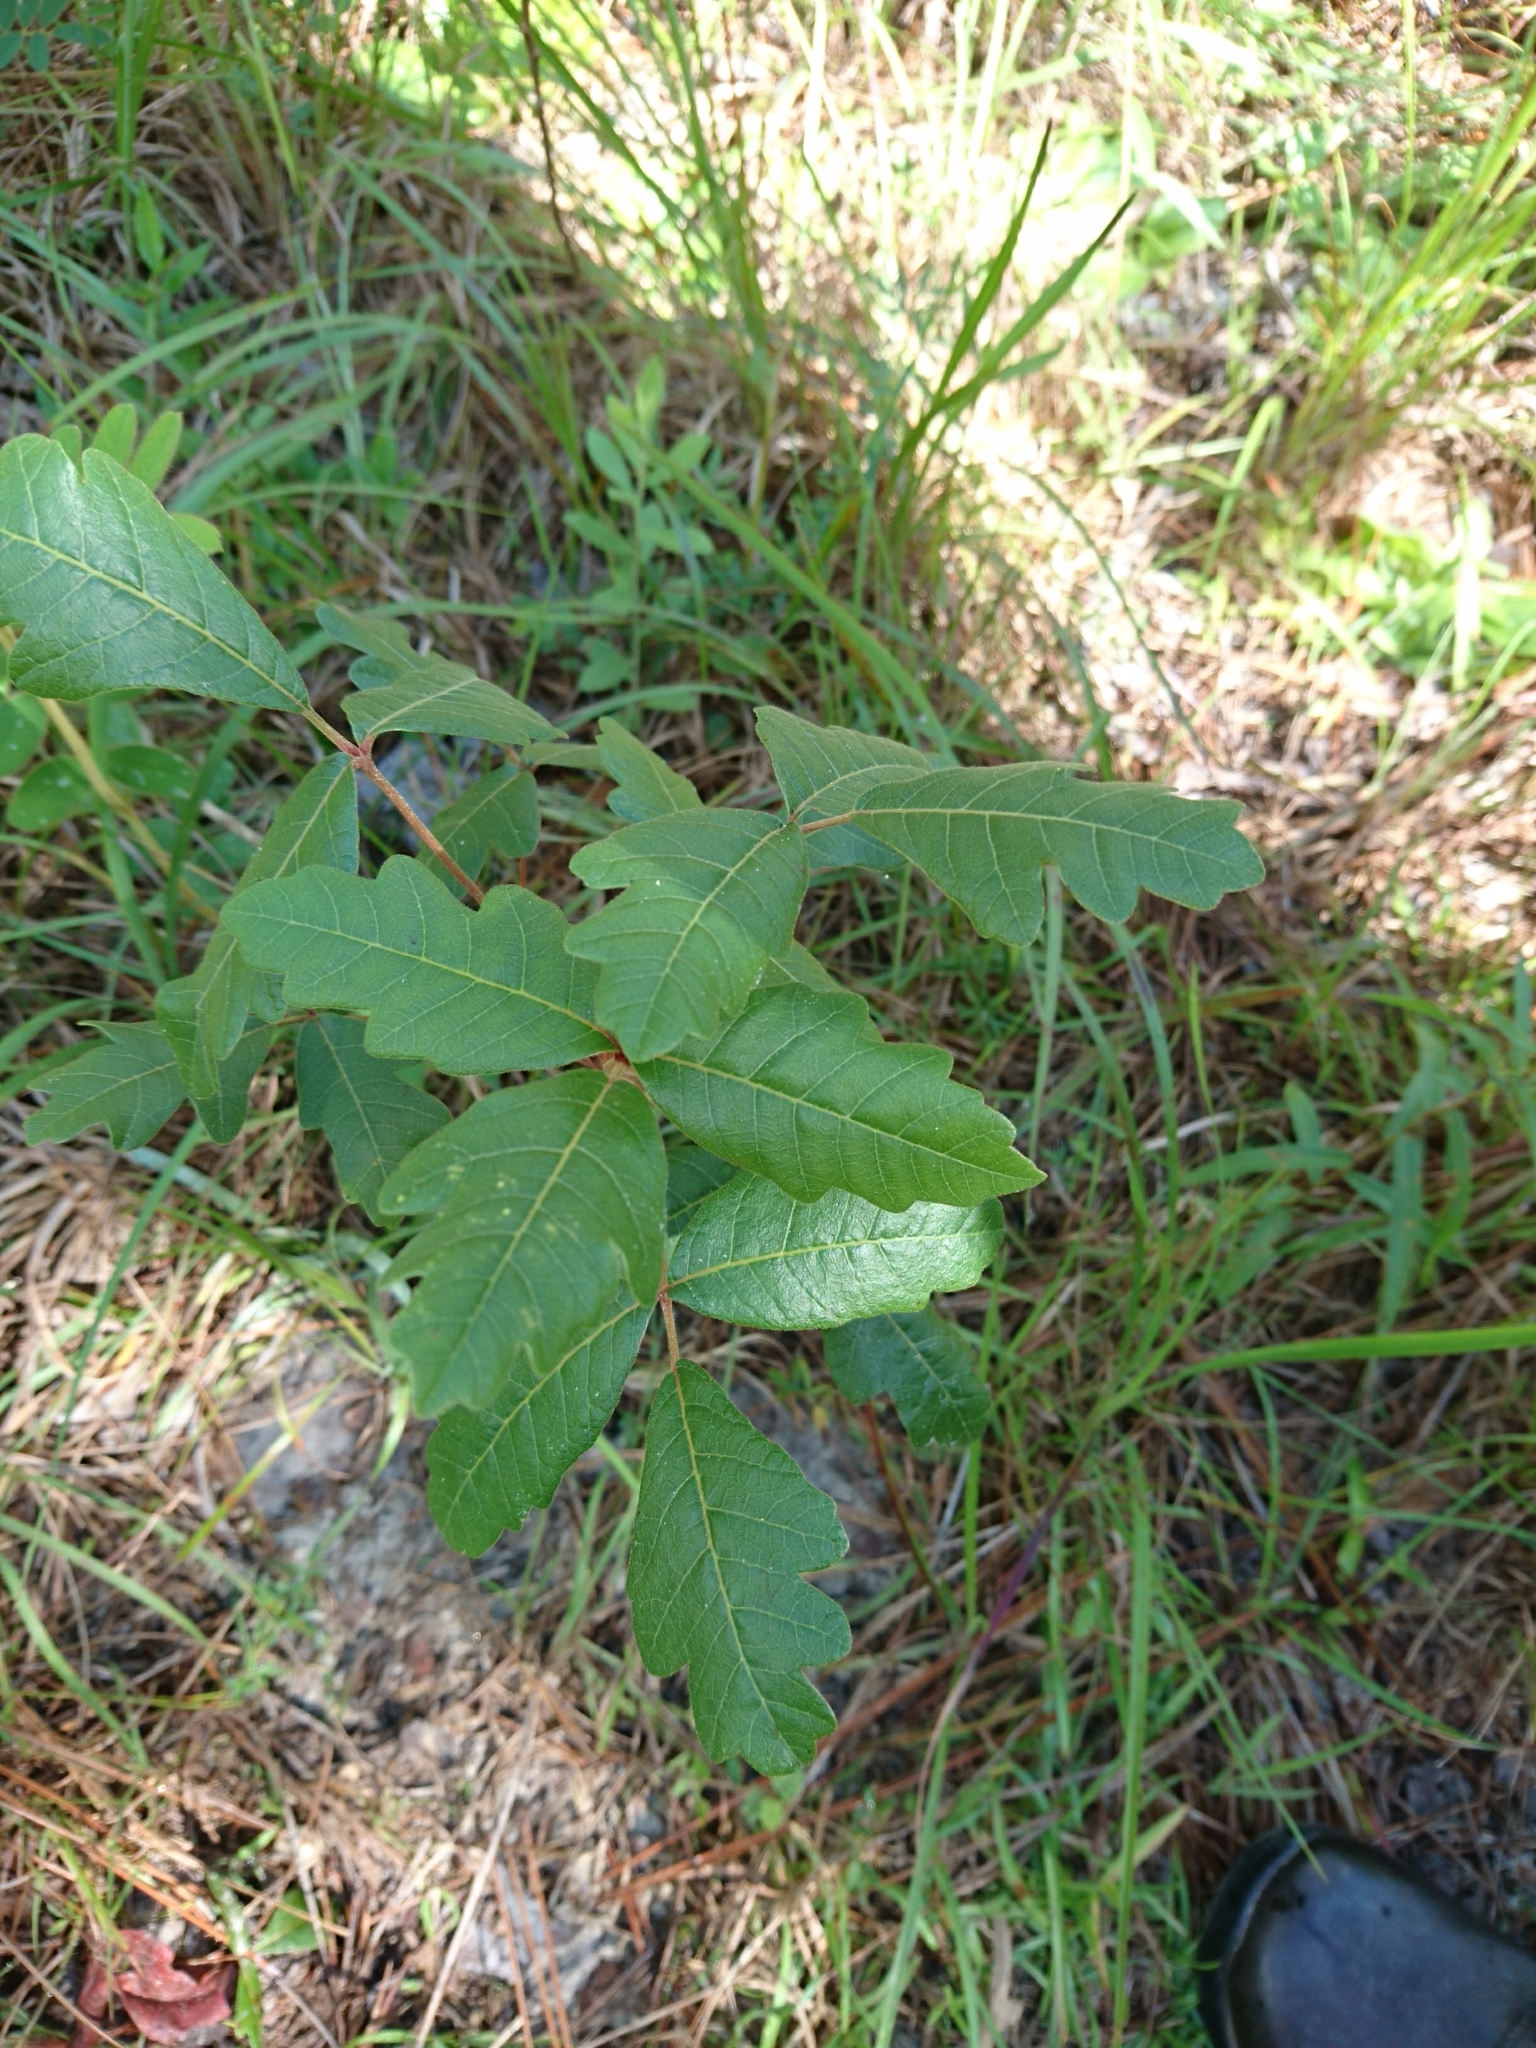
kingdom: Plantae
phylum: Tracheophyta
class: Magnoliopsida
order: Sapindales
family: Anacardiaceae
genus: Toxicodendron
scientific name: Toxicodendron pubescens
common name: Eastern poison-oak
